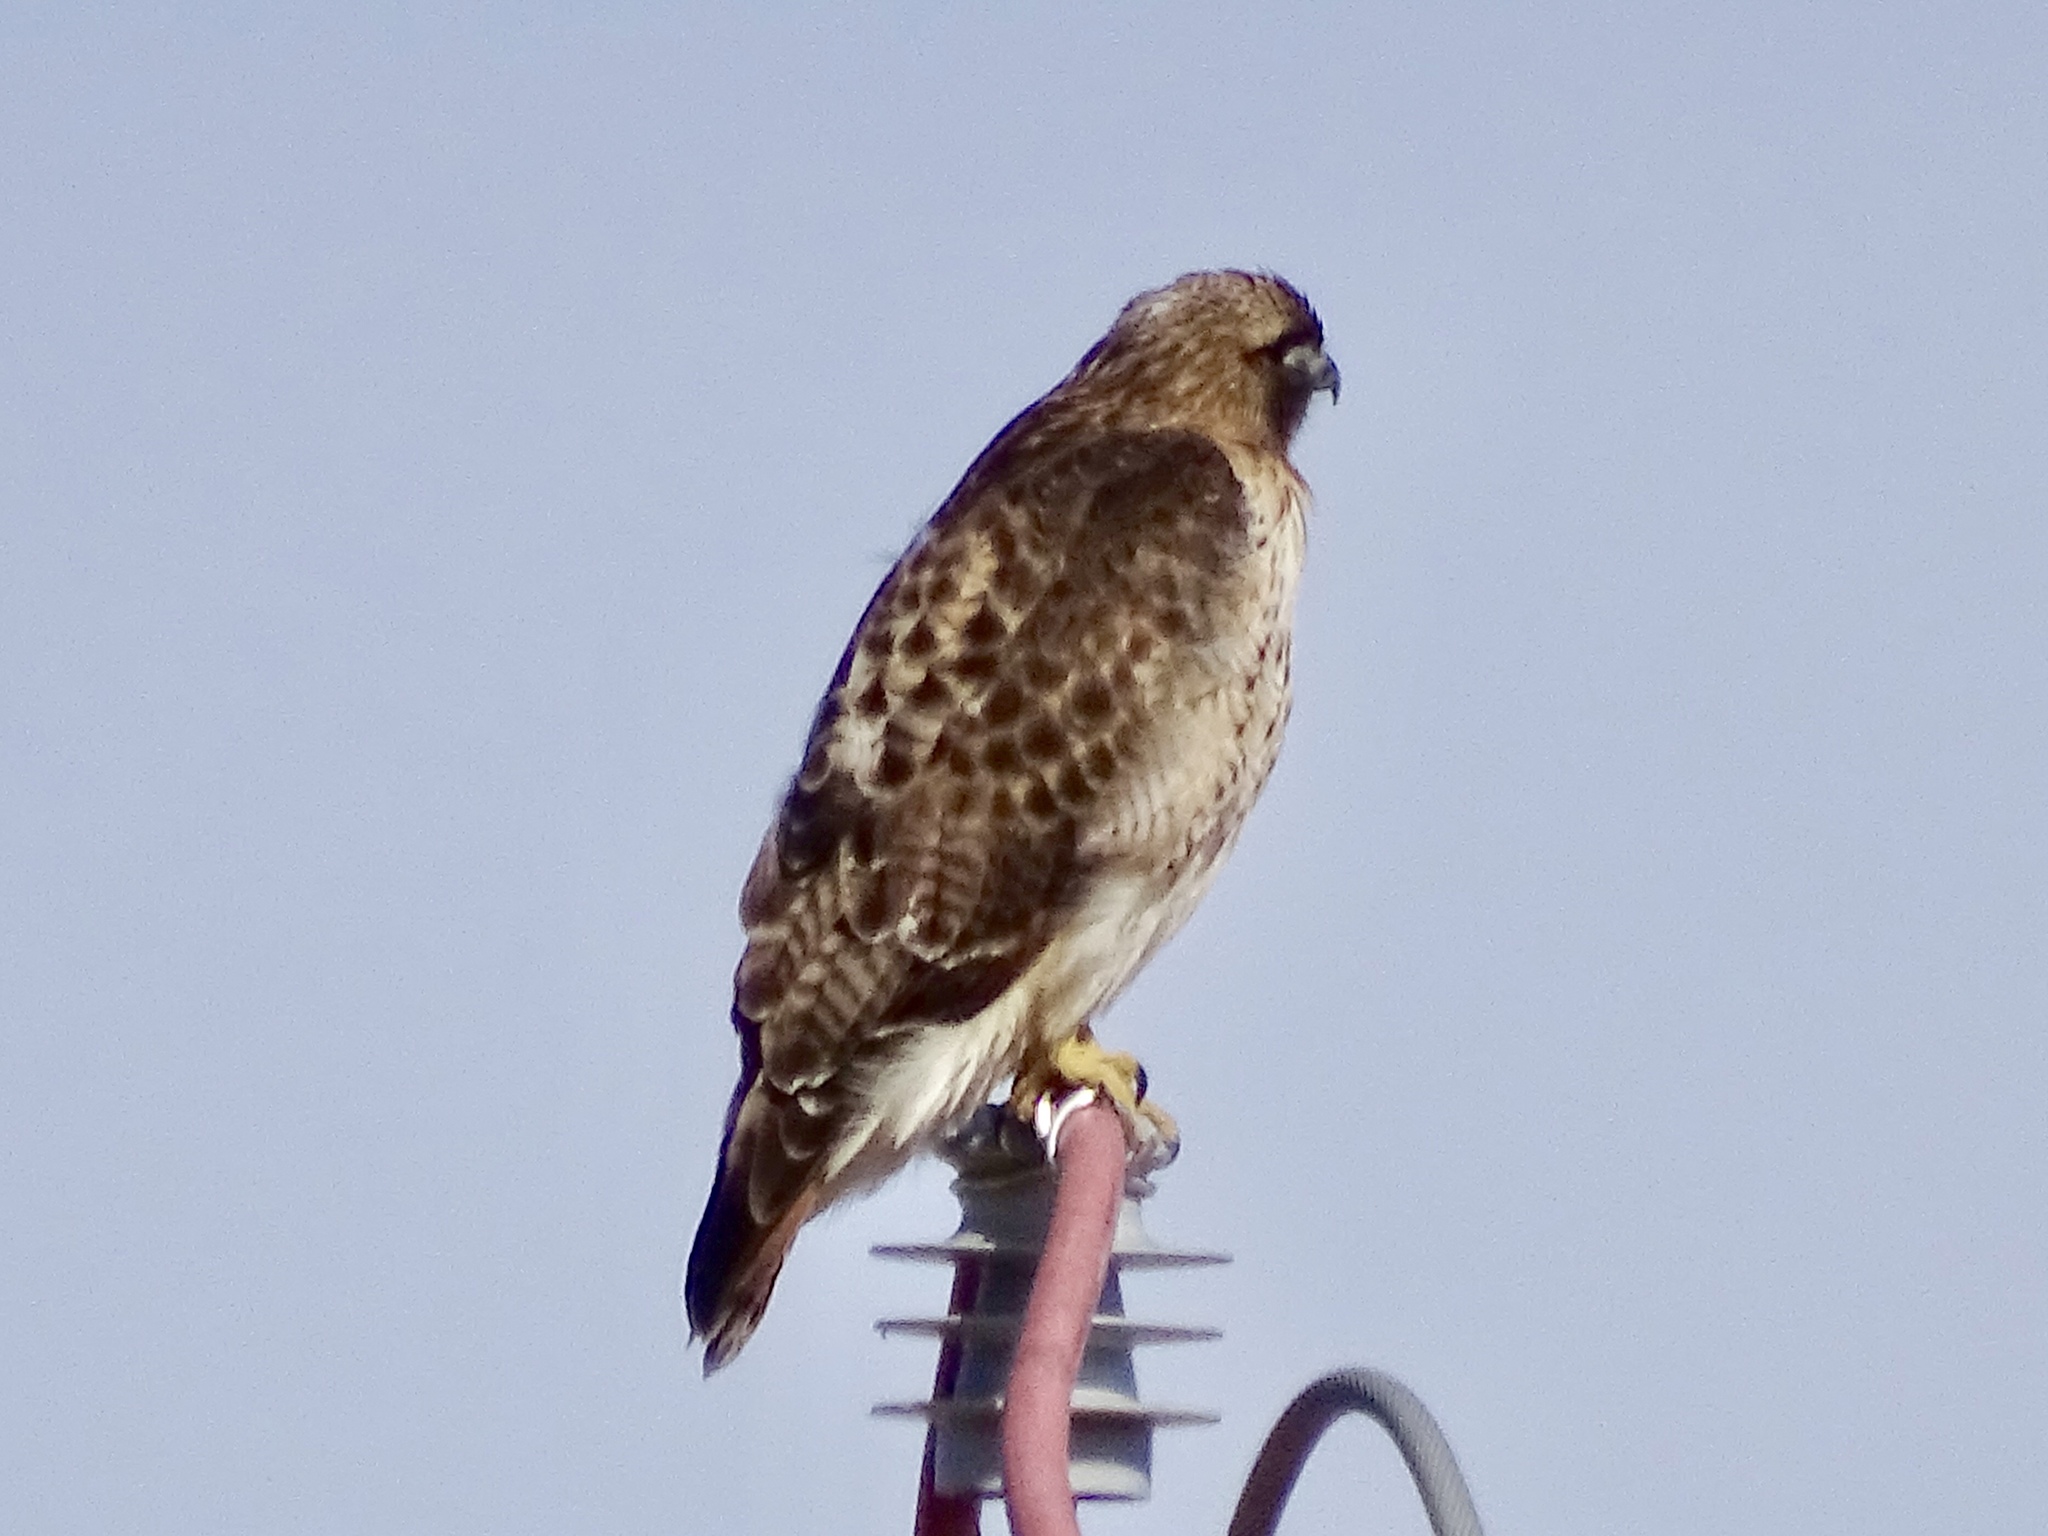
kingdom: Animalia
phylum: Chordata
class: Aves
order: Accipitriformes
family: Accipitridae
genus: Buteo
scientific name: Buteo jamaicensis
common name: Red-tailed hawk
